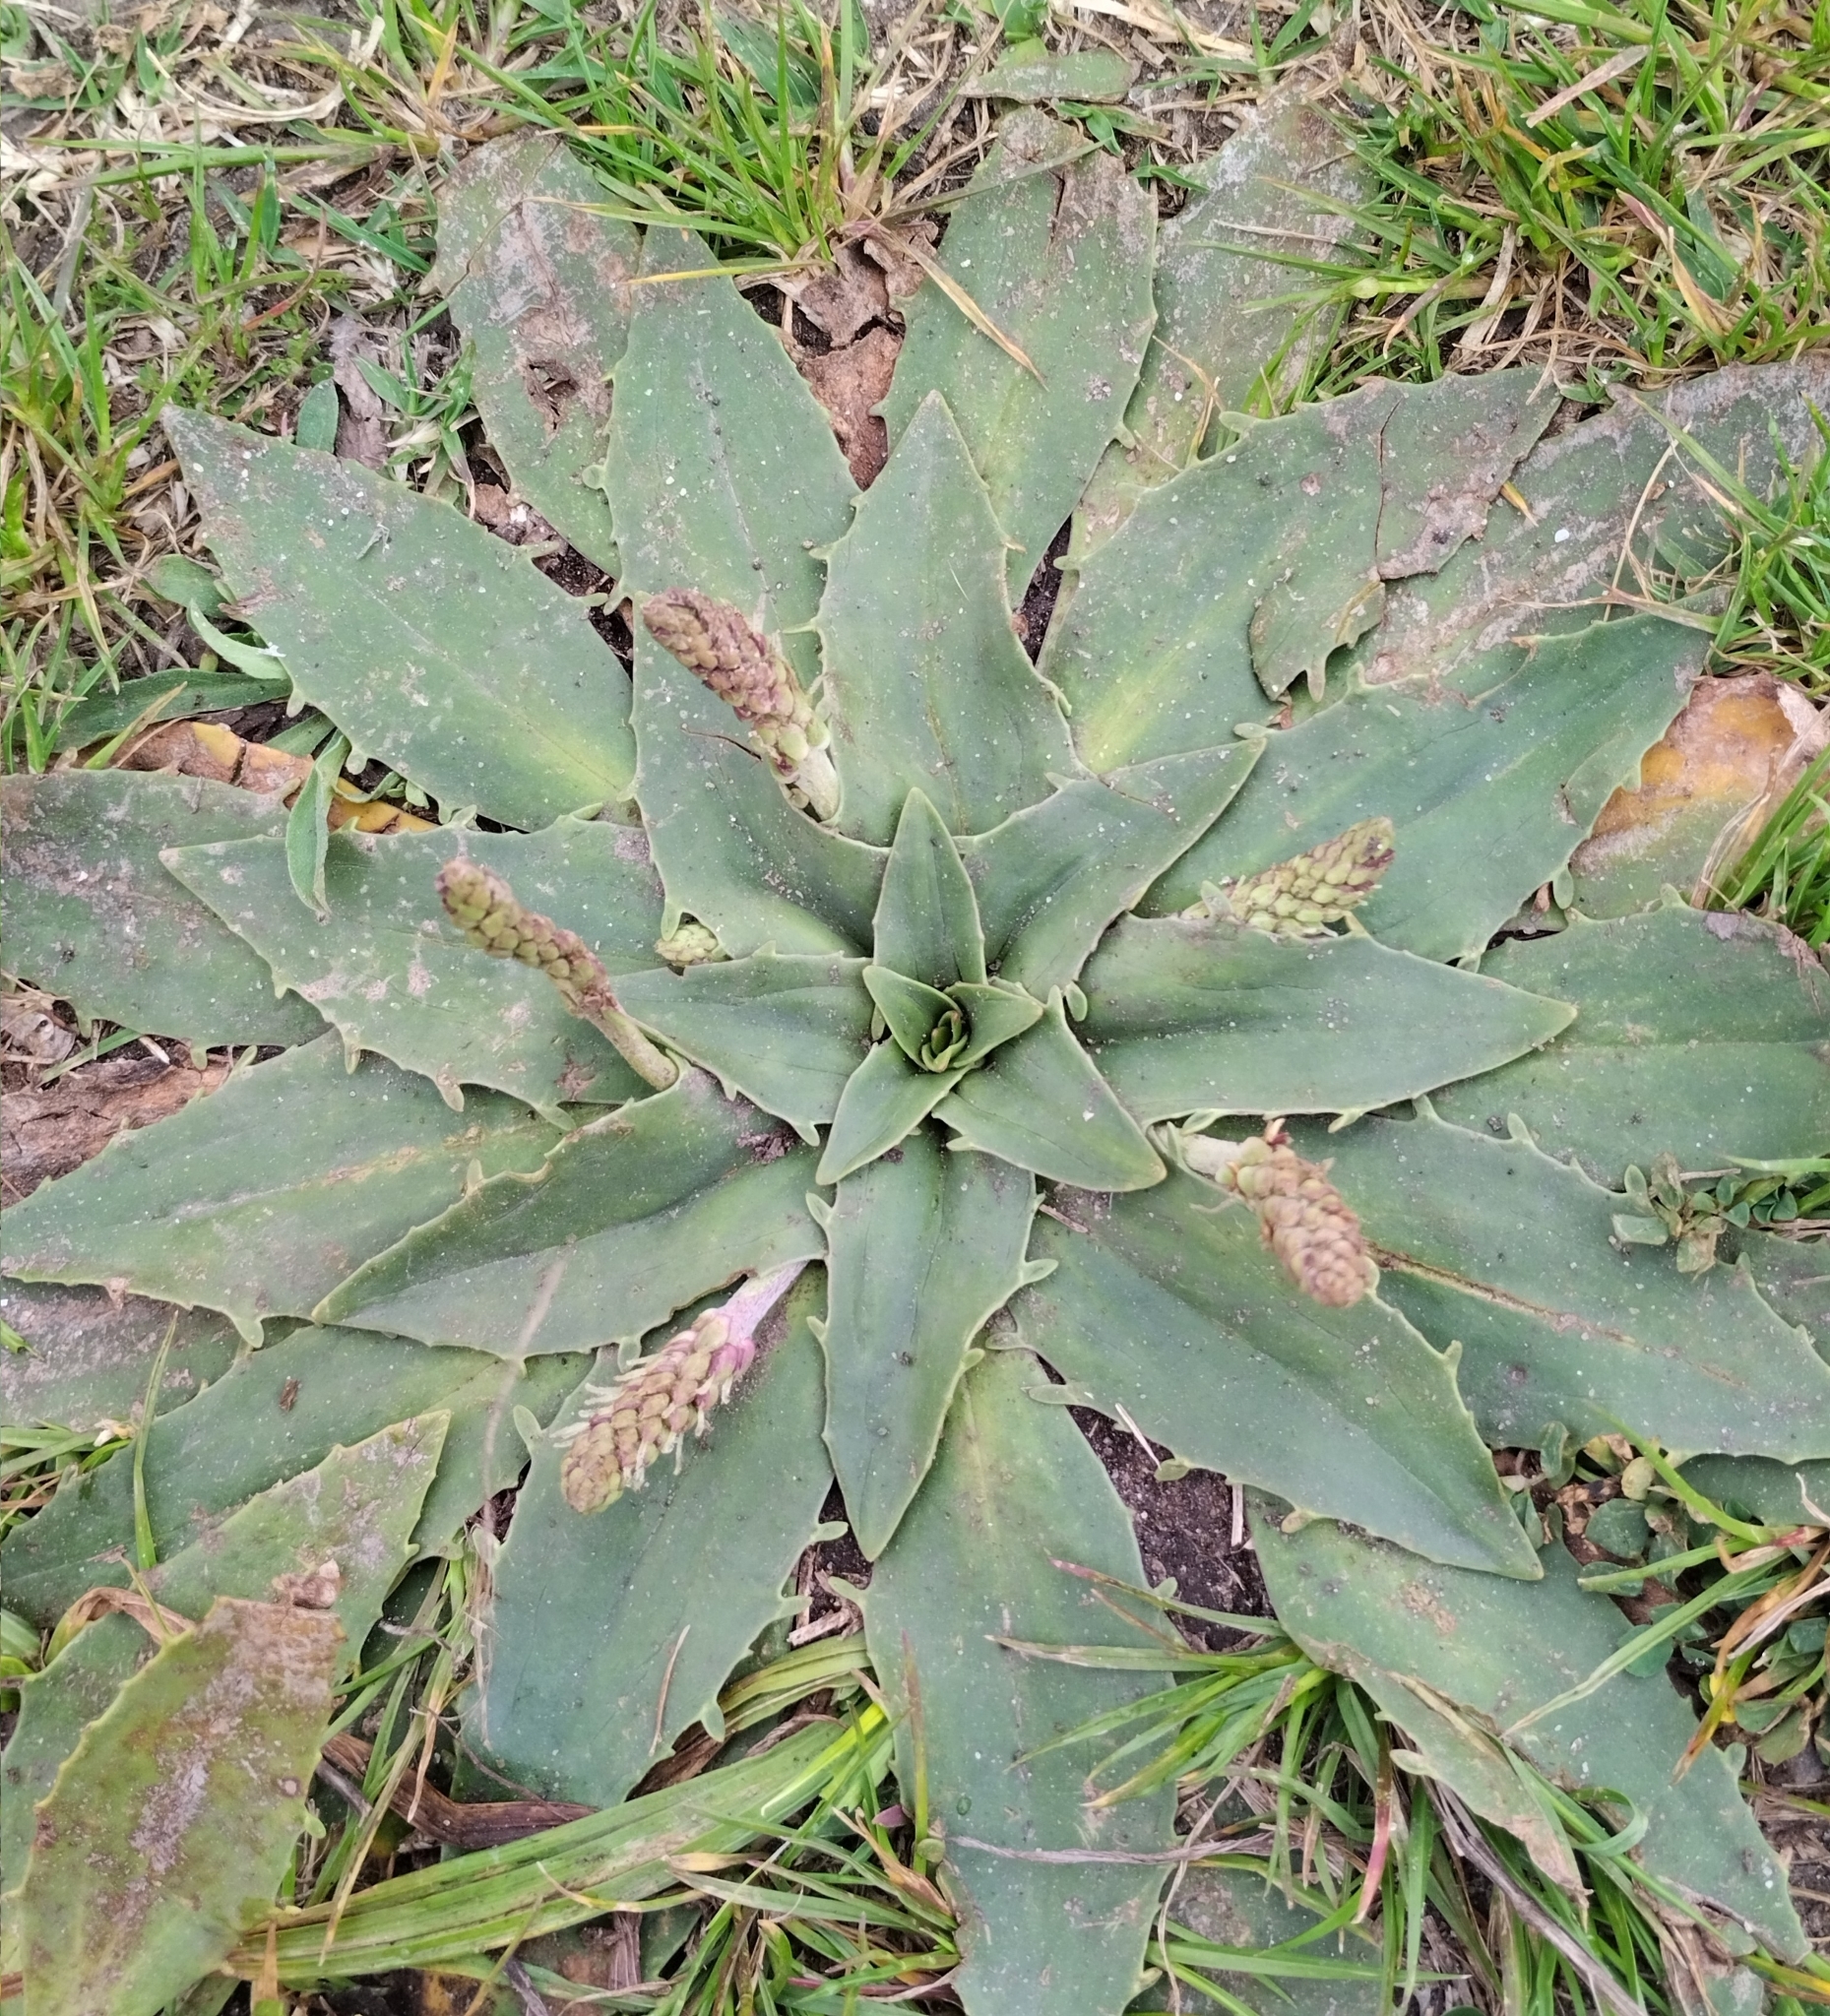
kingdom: Plantae
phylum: Tracheophyta
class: Magnoliopsida
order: Lamiales
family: Plantaginaceae
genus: Plantago
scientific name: Plantago dielsiana
